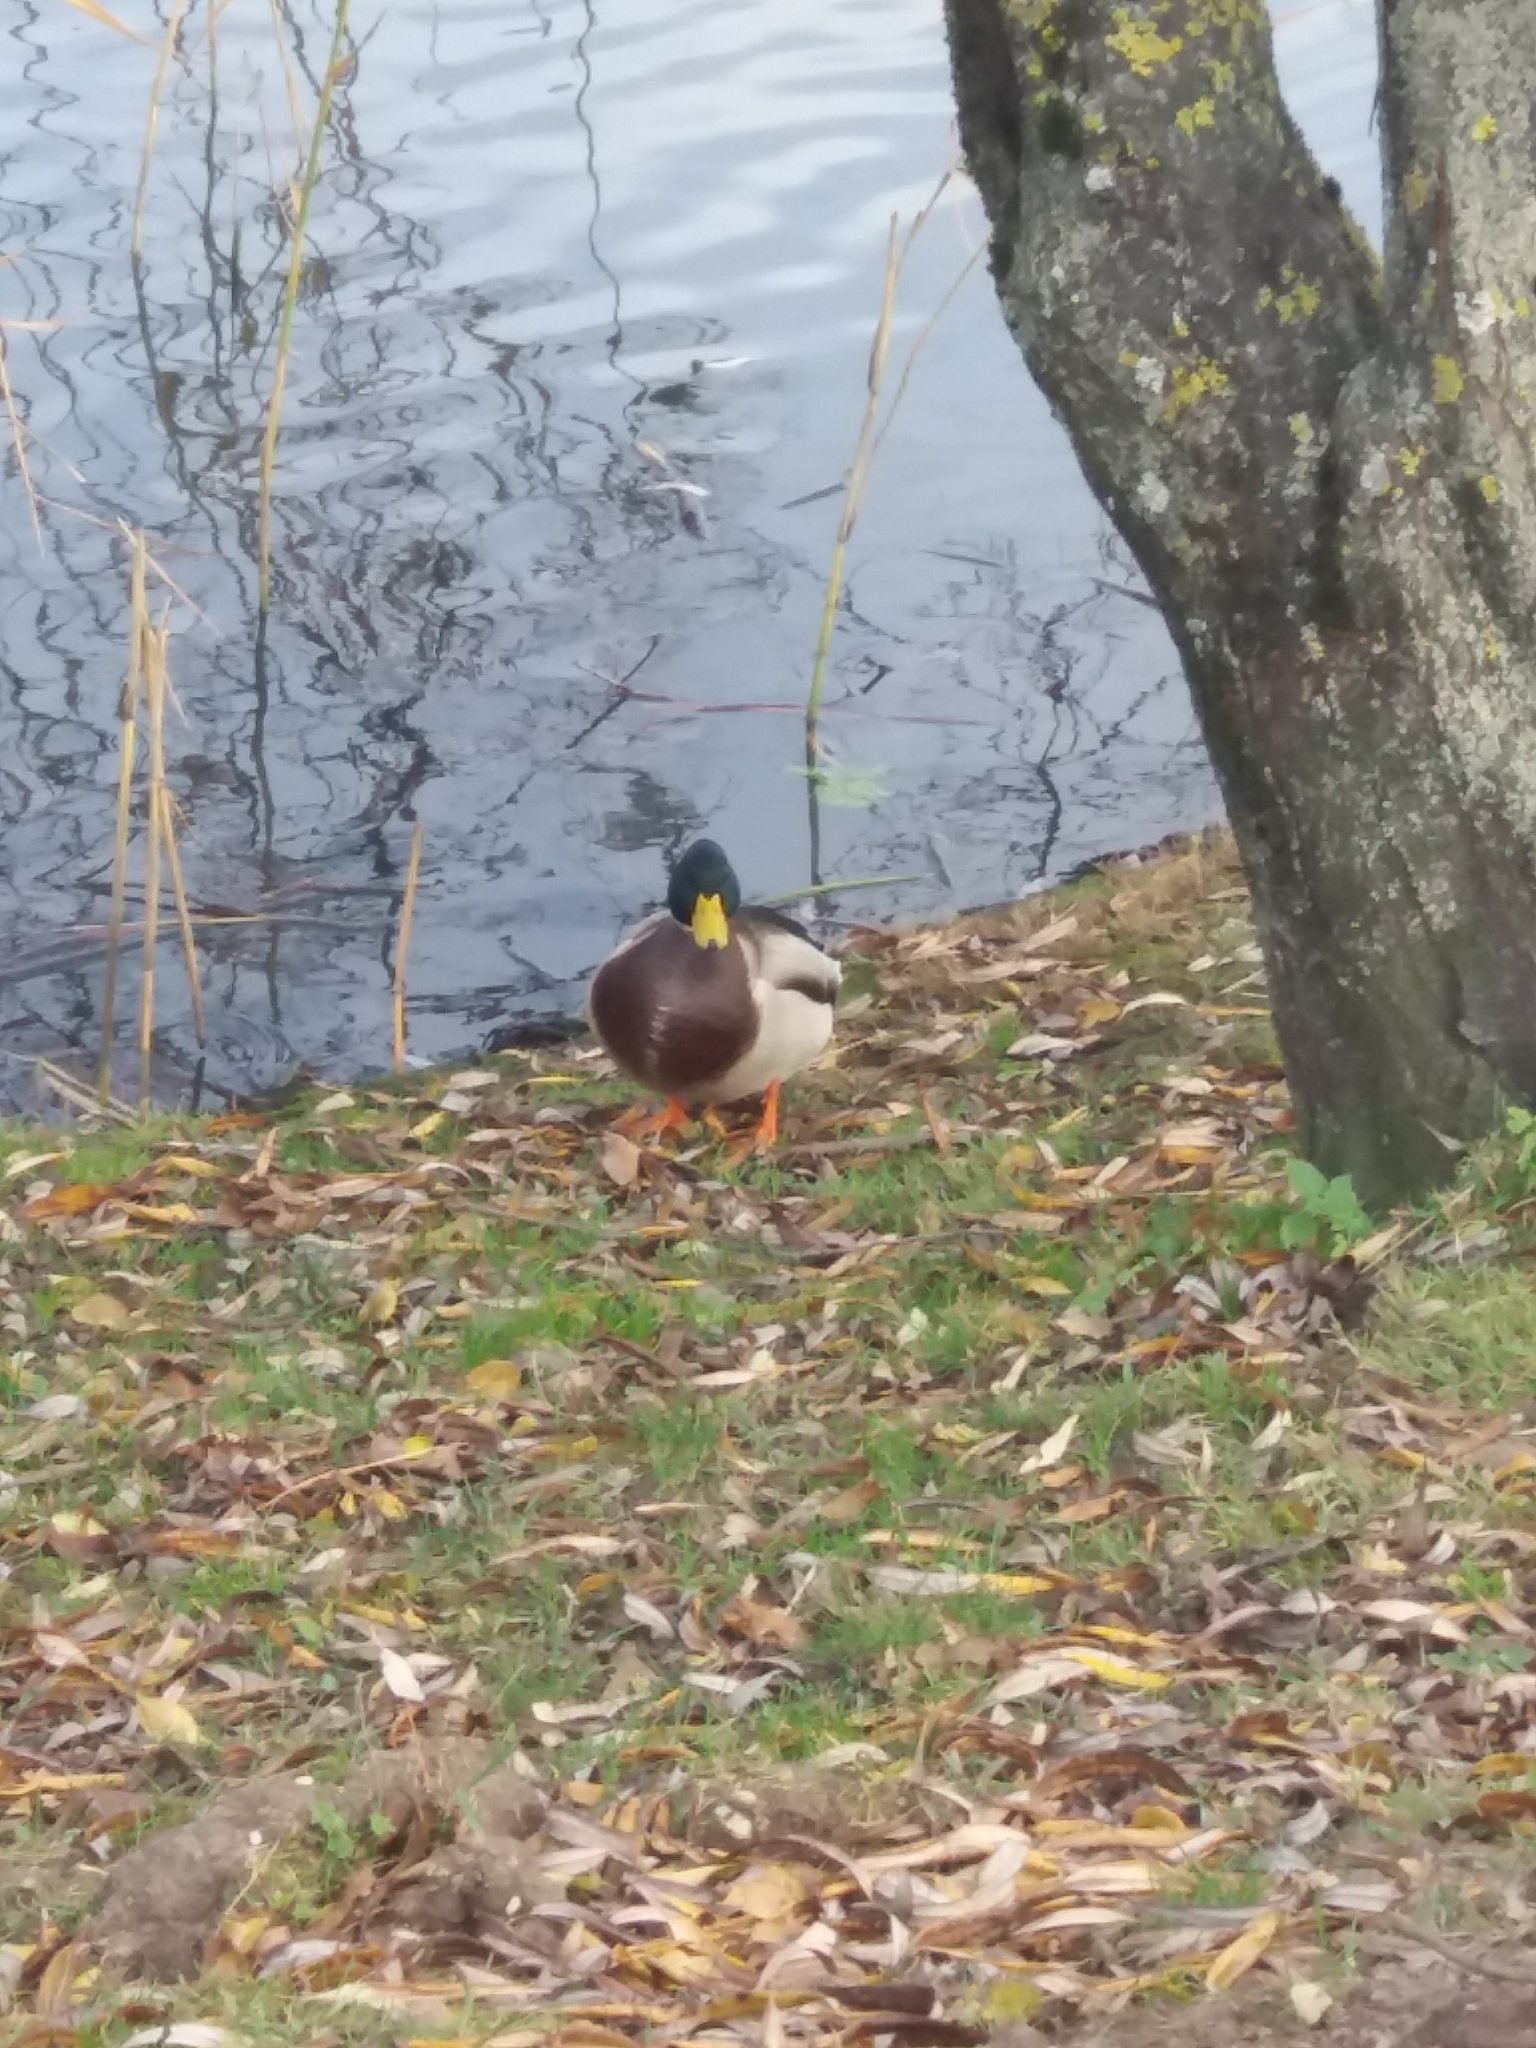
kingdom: Animalia
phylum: Chordata
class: Aves
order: Anseriformes
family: Anatidae
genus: Anas
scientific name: Anas platyrhynchos
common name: Mallard
